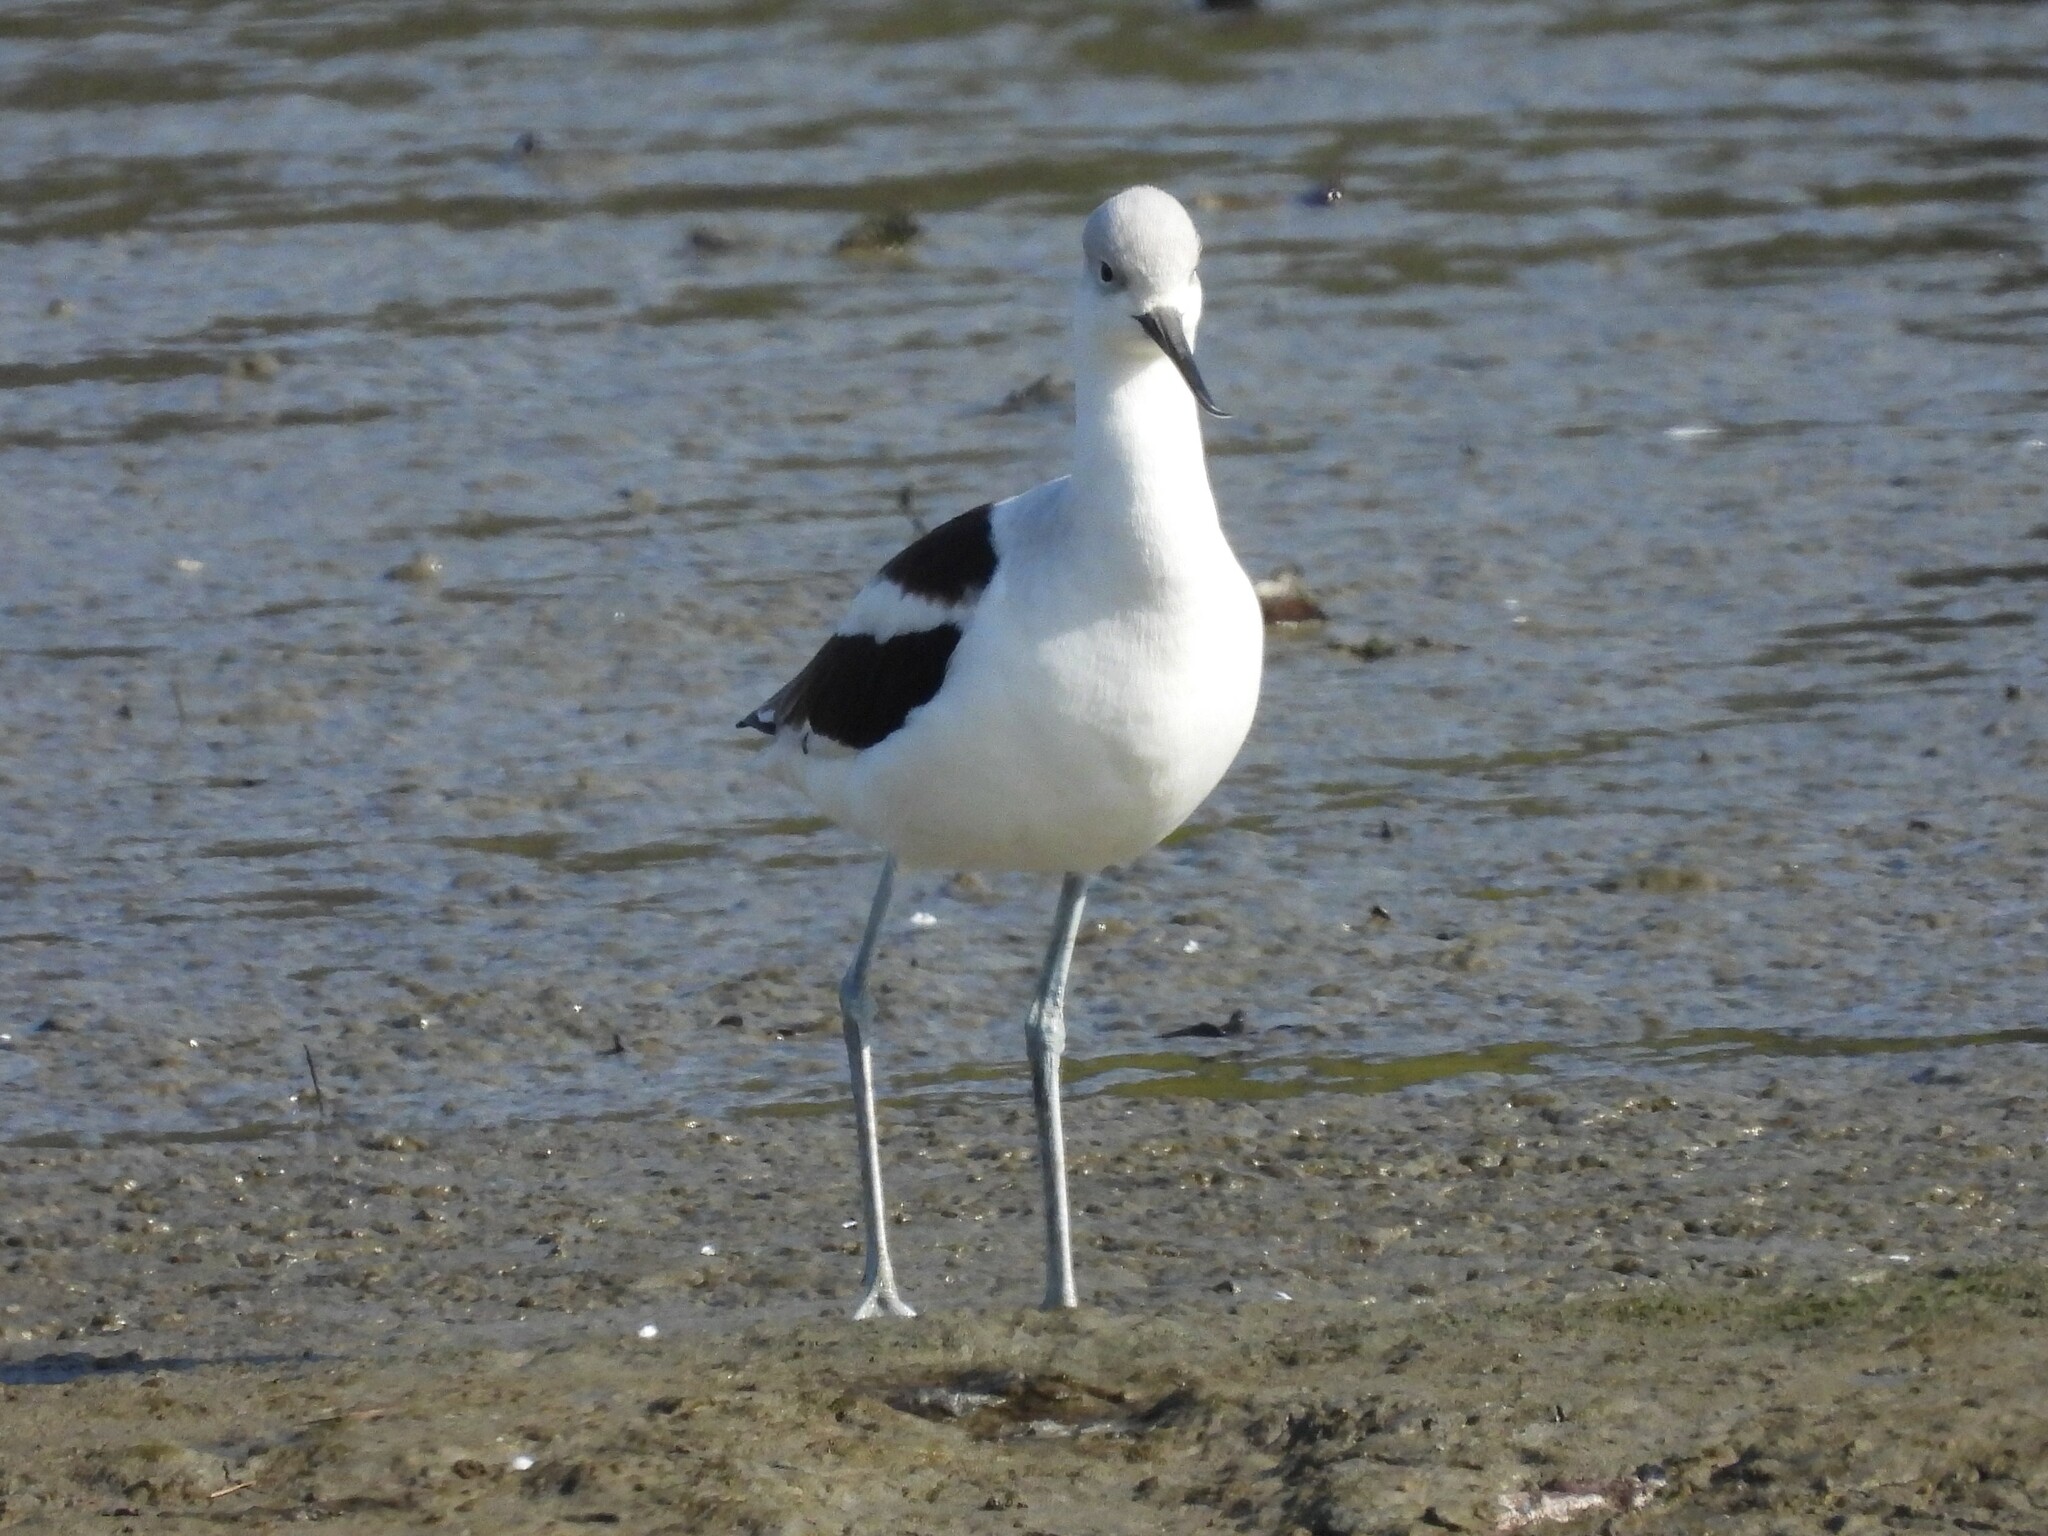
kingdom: Animalia
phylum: Chordata
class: Aves
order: Charadriiformes
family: Recurvirostridae
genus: Recurvirostra
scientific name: Recurvirostra americana
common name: American avocet
